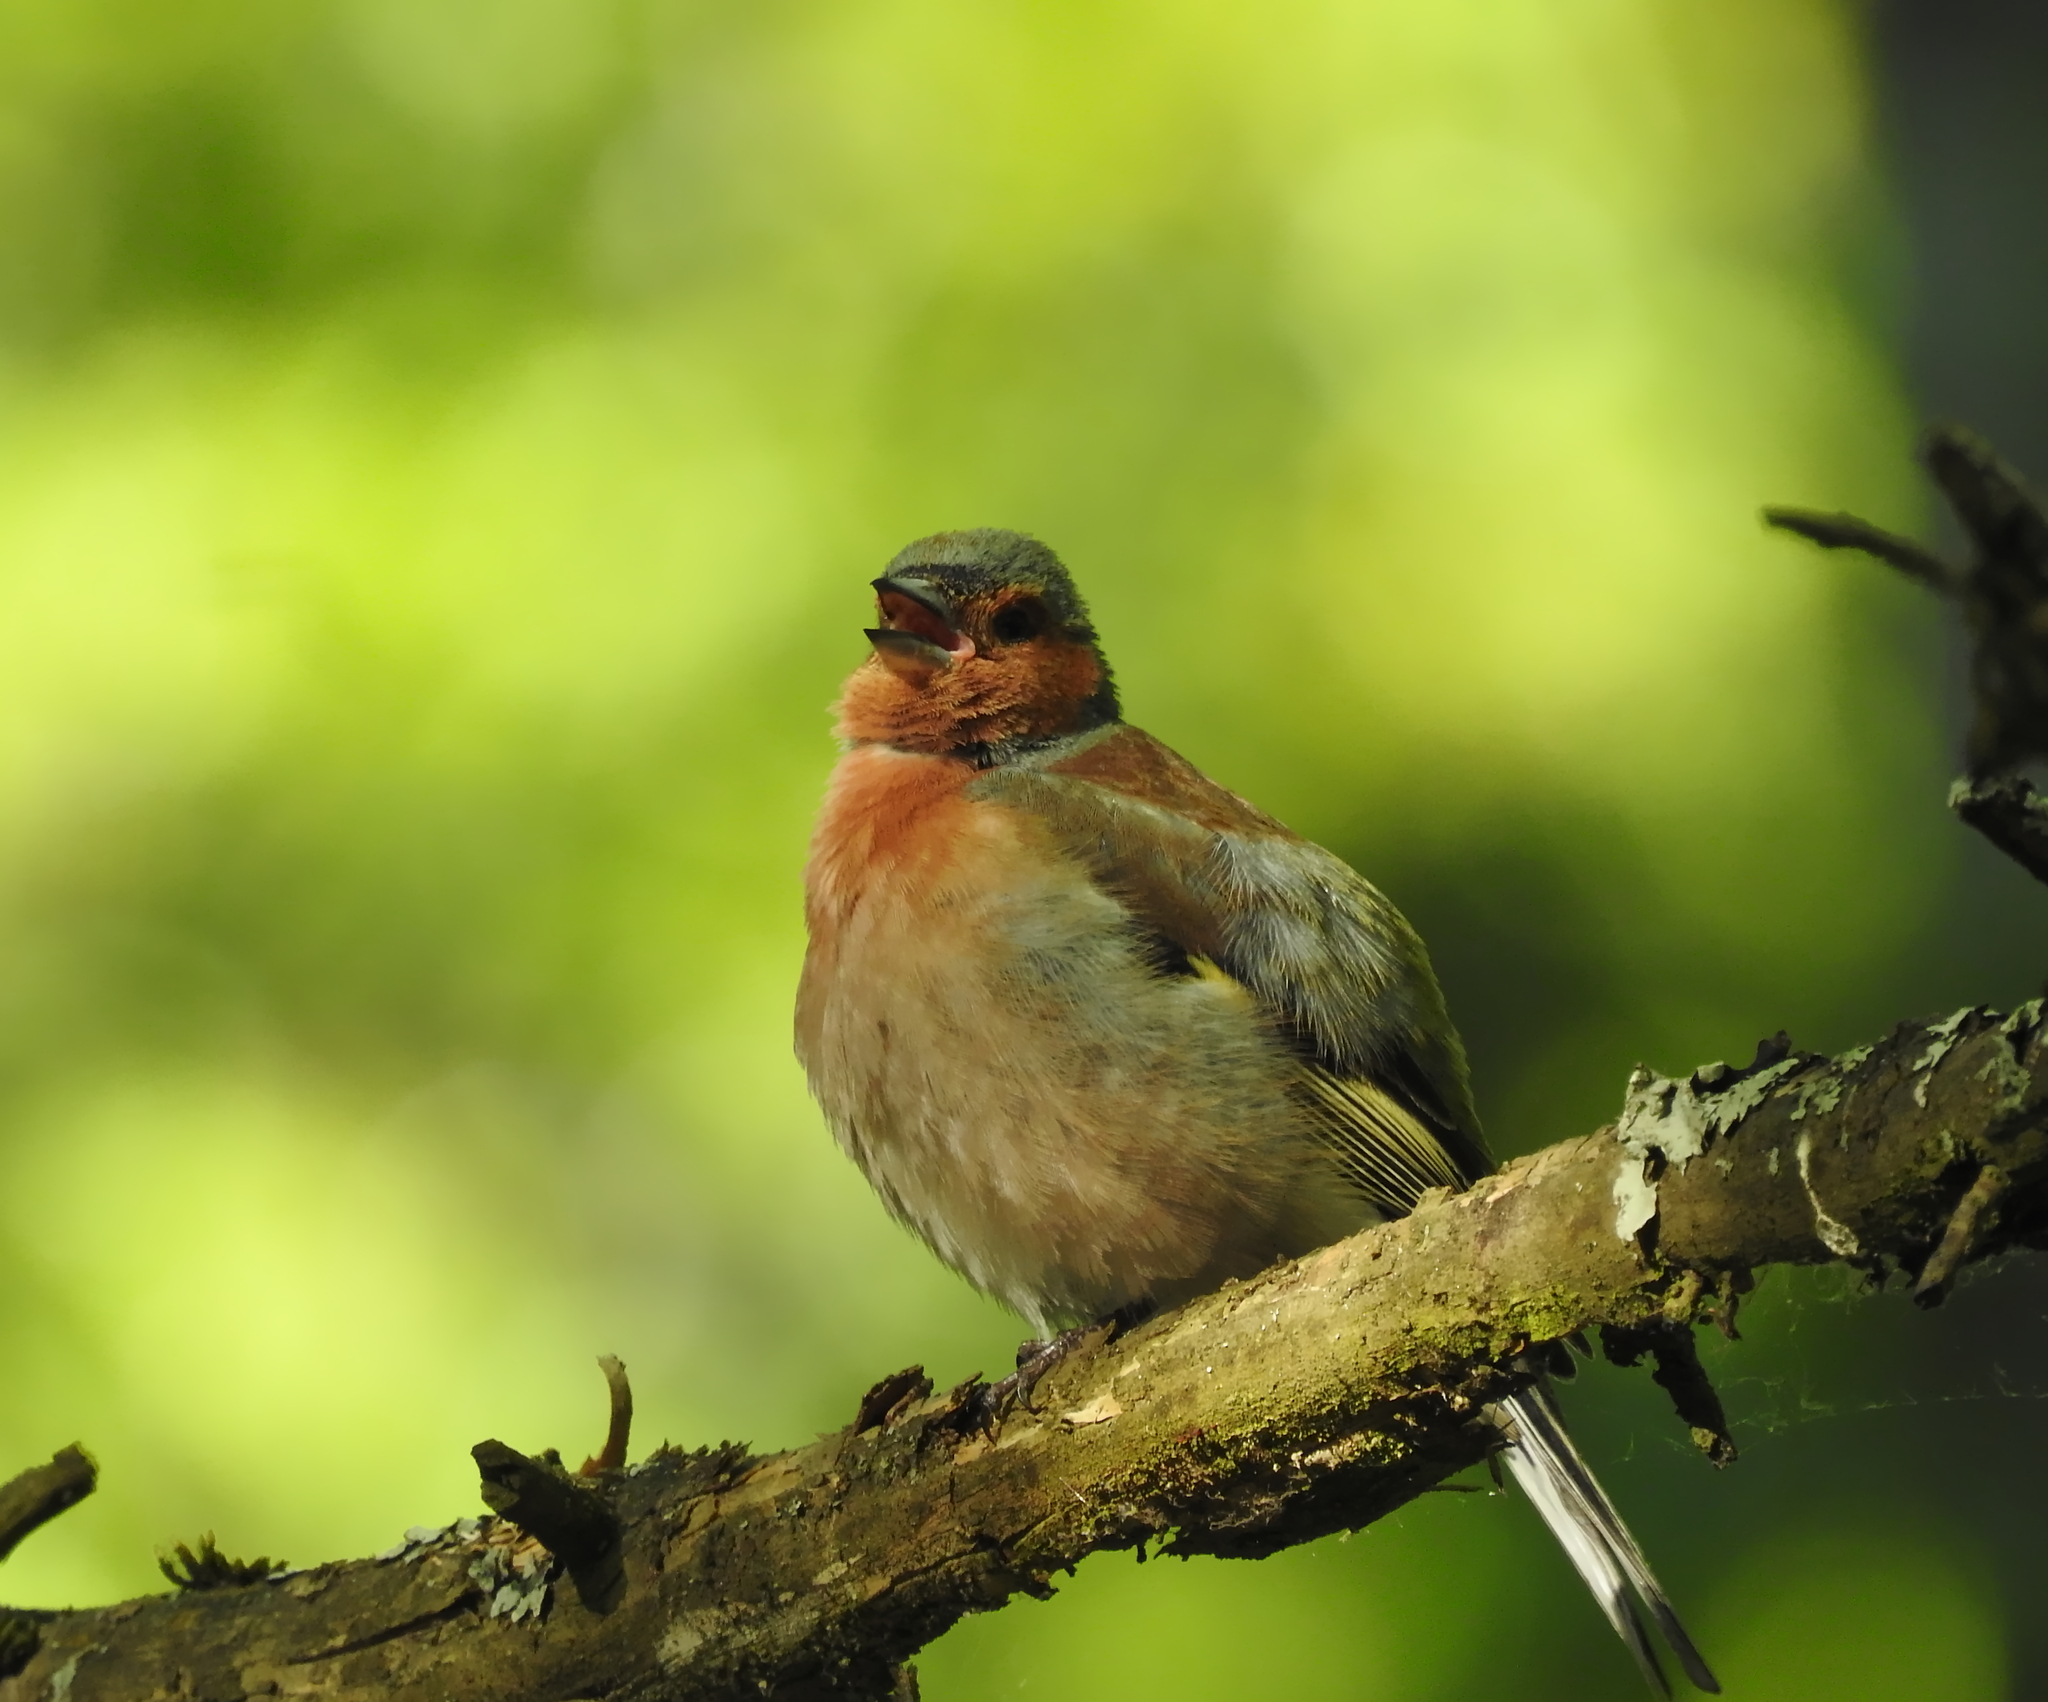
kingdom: Animalia
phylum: Chordata
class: Aves
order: Passeriformes
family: Fringillidae
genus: Fringilla
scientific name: Fringilla coelebs
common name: Common chaffinch
